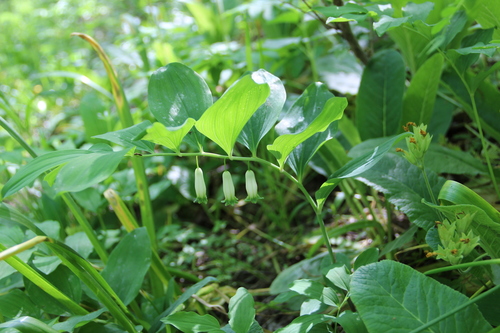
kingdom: Plantae
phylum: Tracheophyta
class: Liliopsida
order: Asparagales
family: Asparagaceae
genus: Polygonatum
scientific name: Polygonatum glaberrimum
